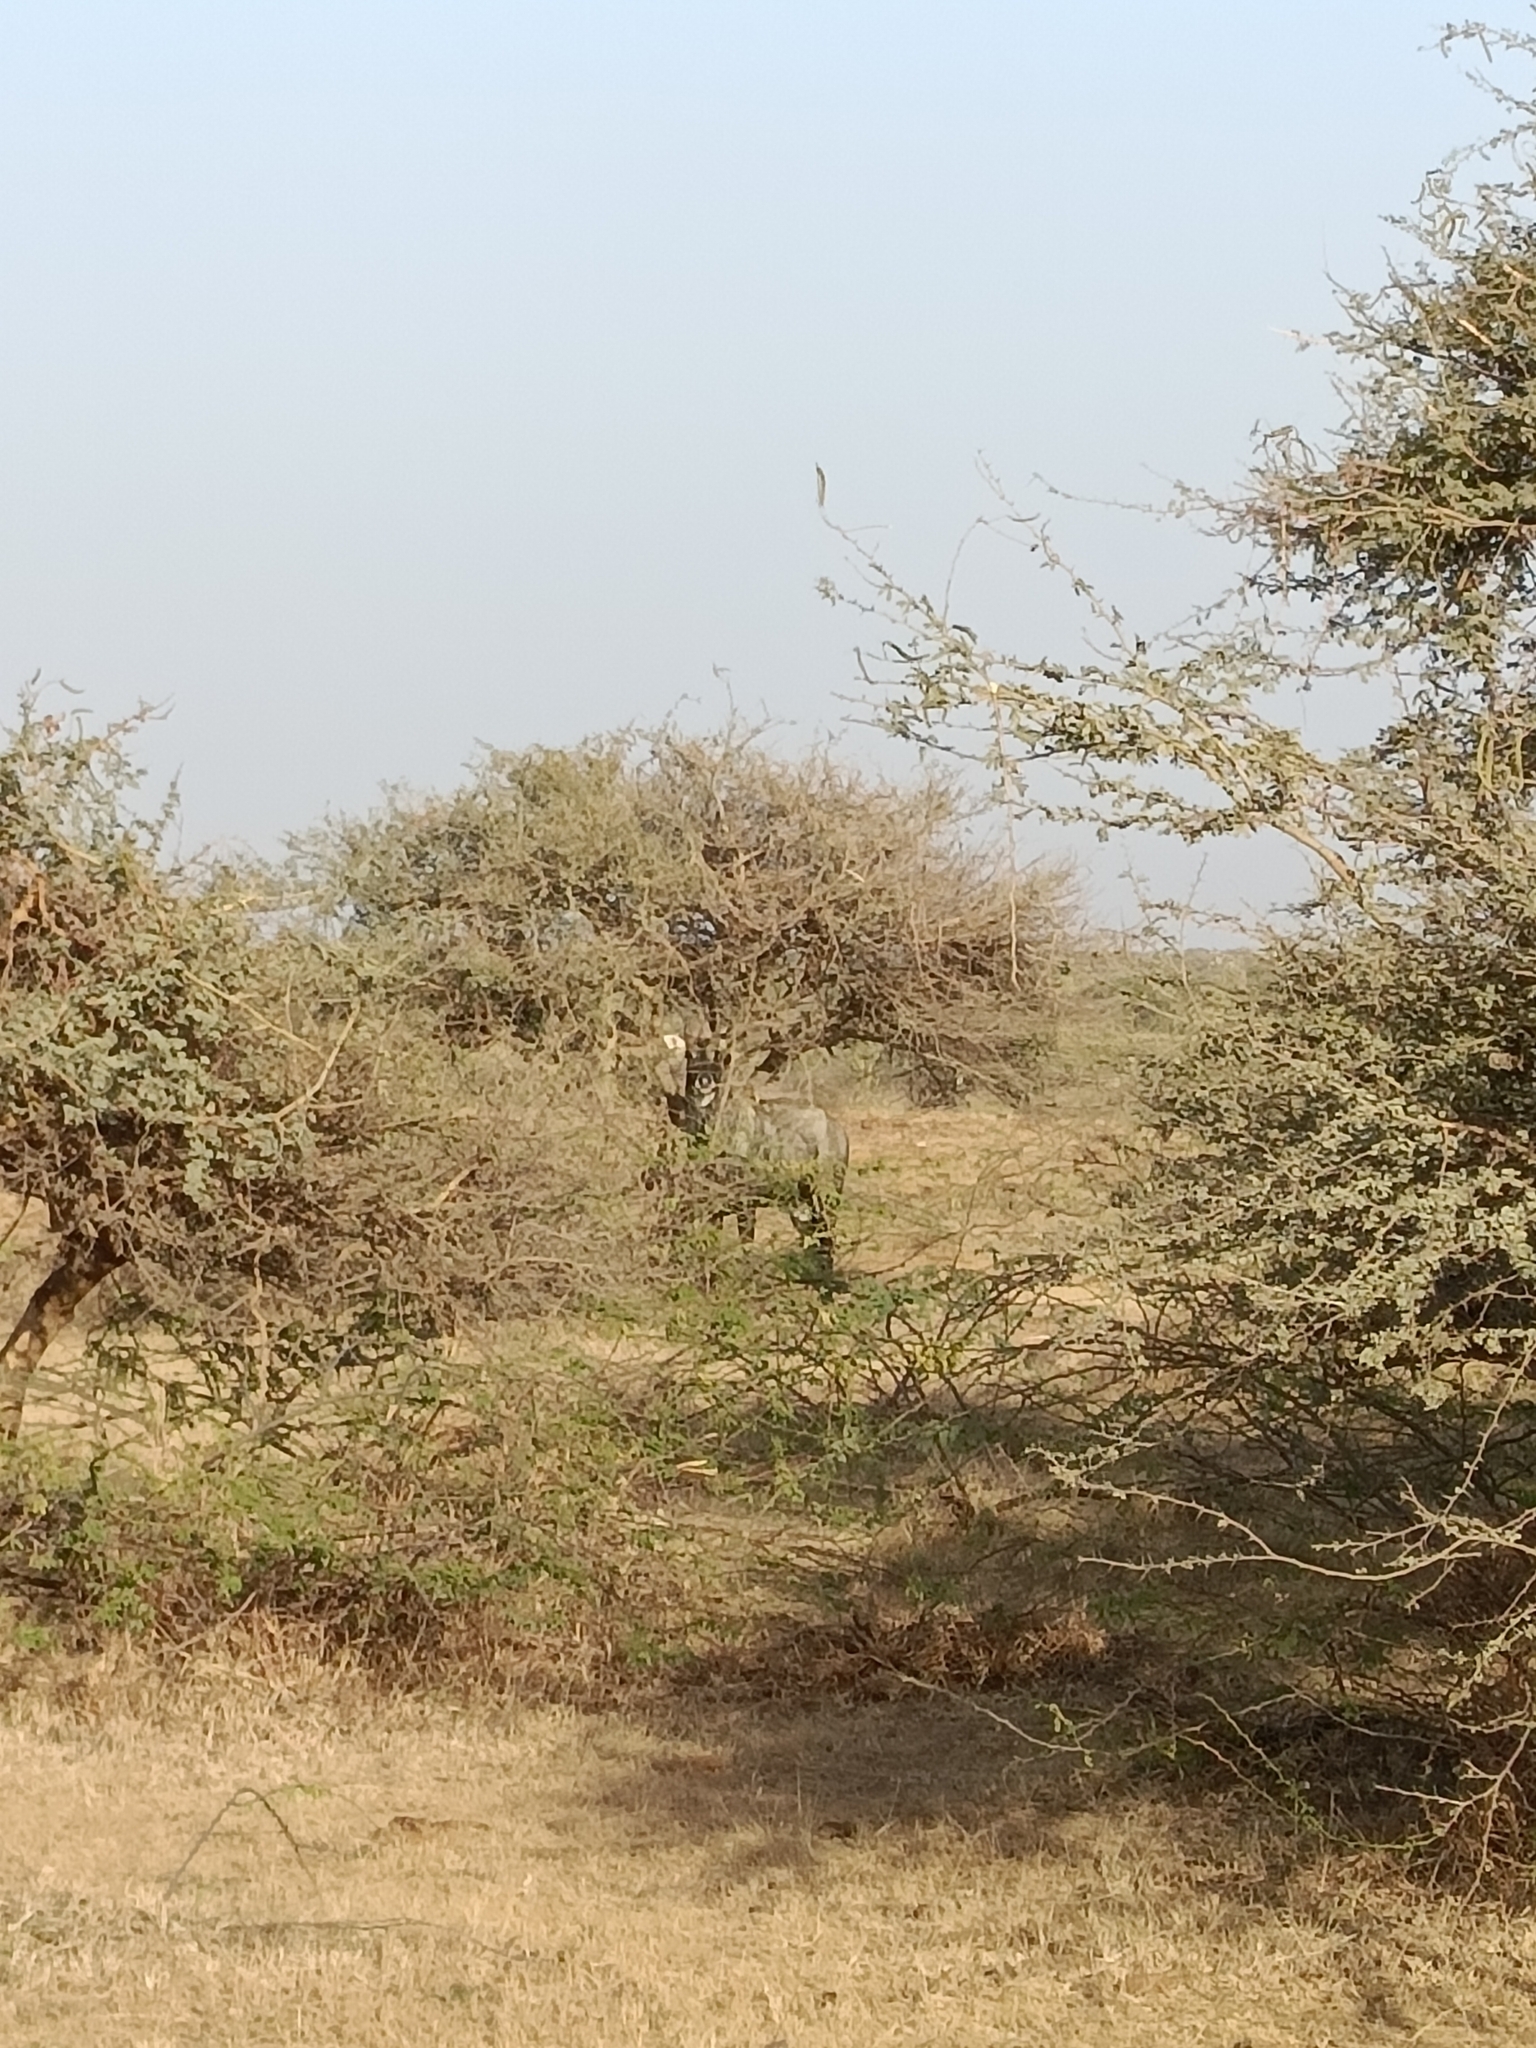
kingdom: Animalia
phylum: Chordata
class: Mammalia
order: Artiodactyla
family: Bovidae
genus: Boselaphus
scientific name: Boselaphus tragocamelus
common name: Nilgai
